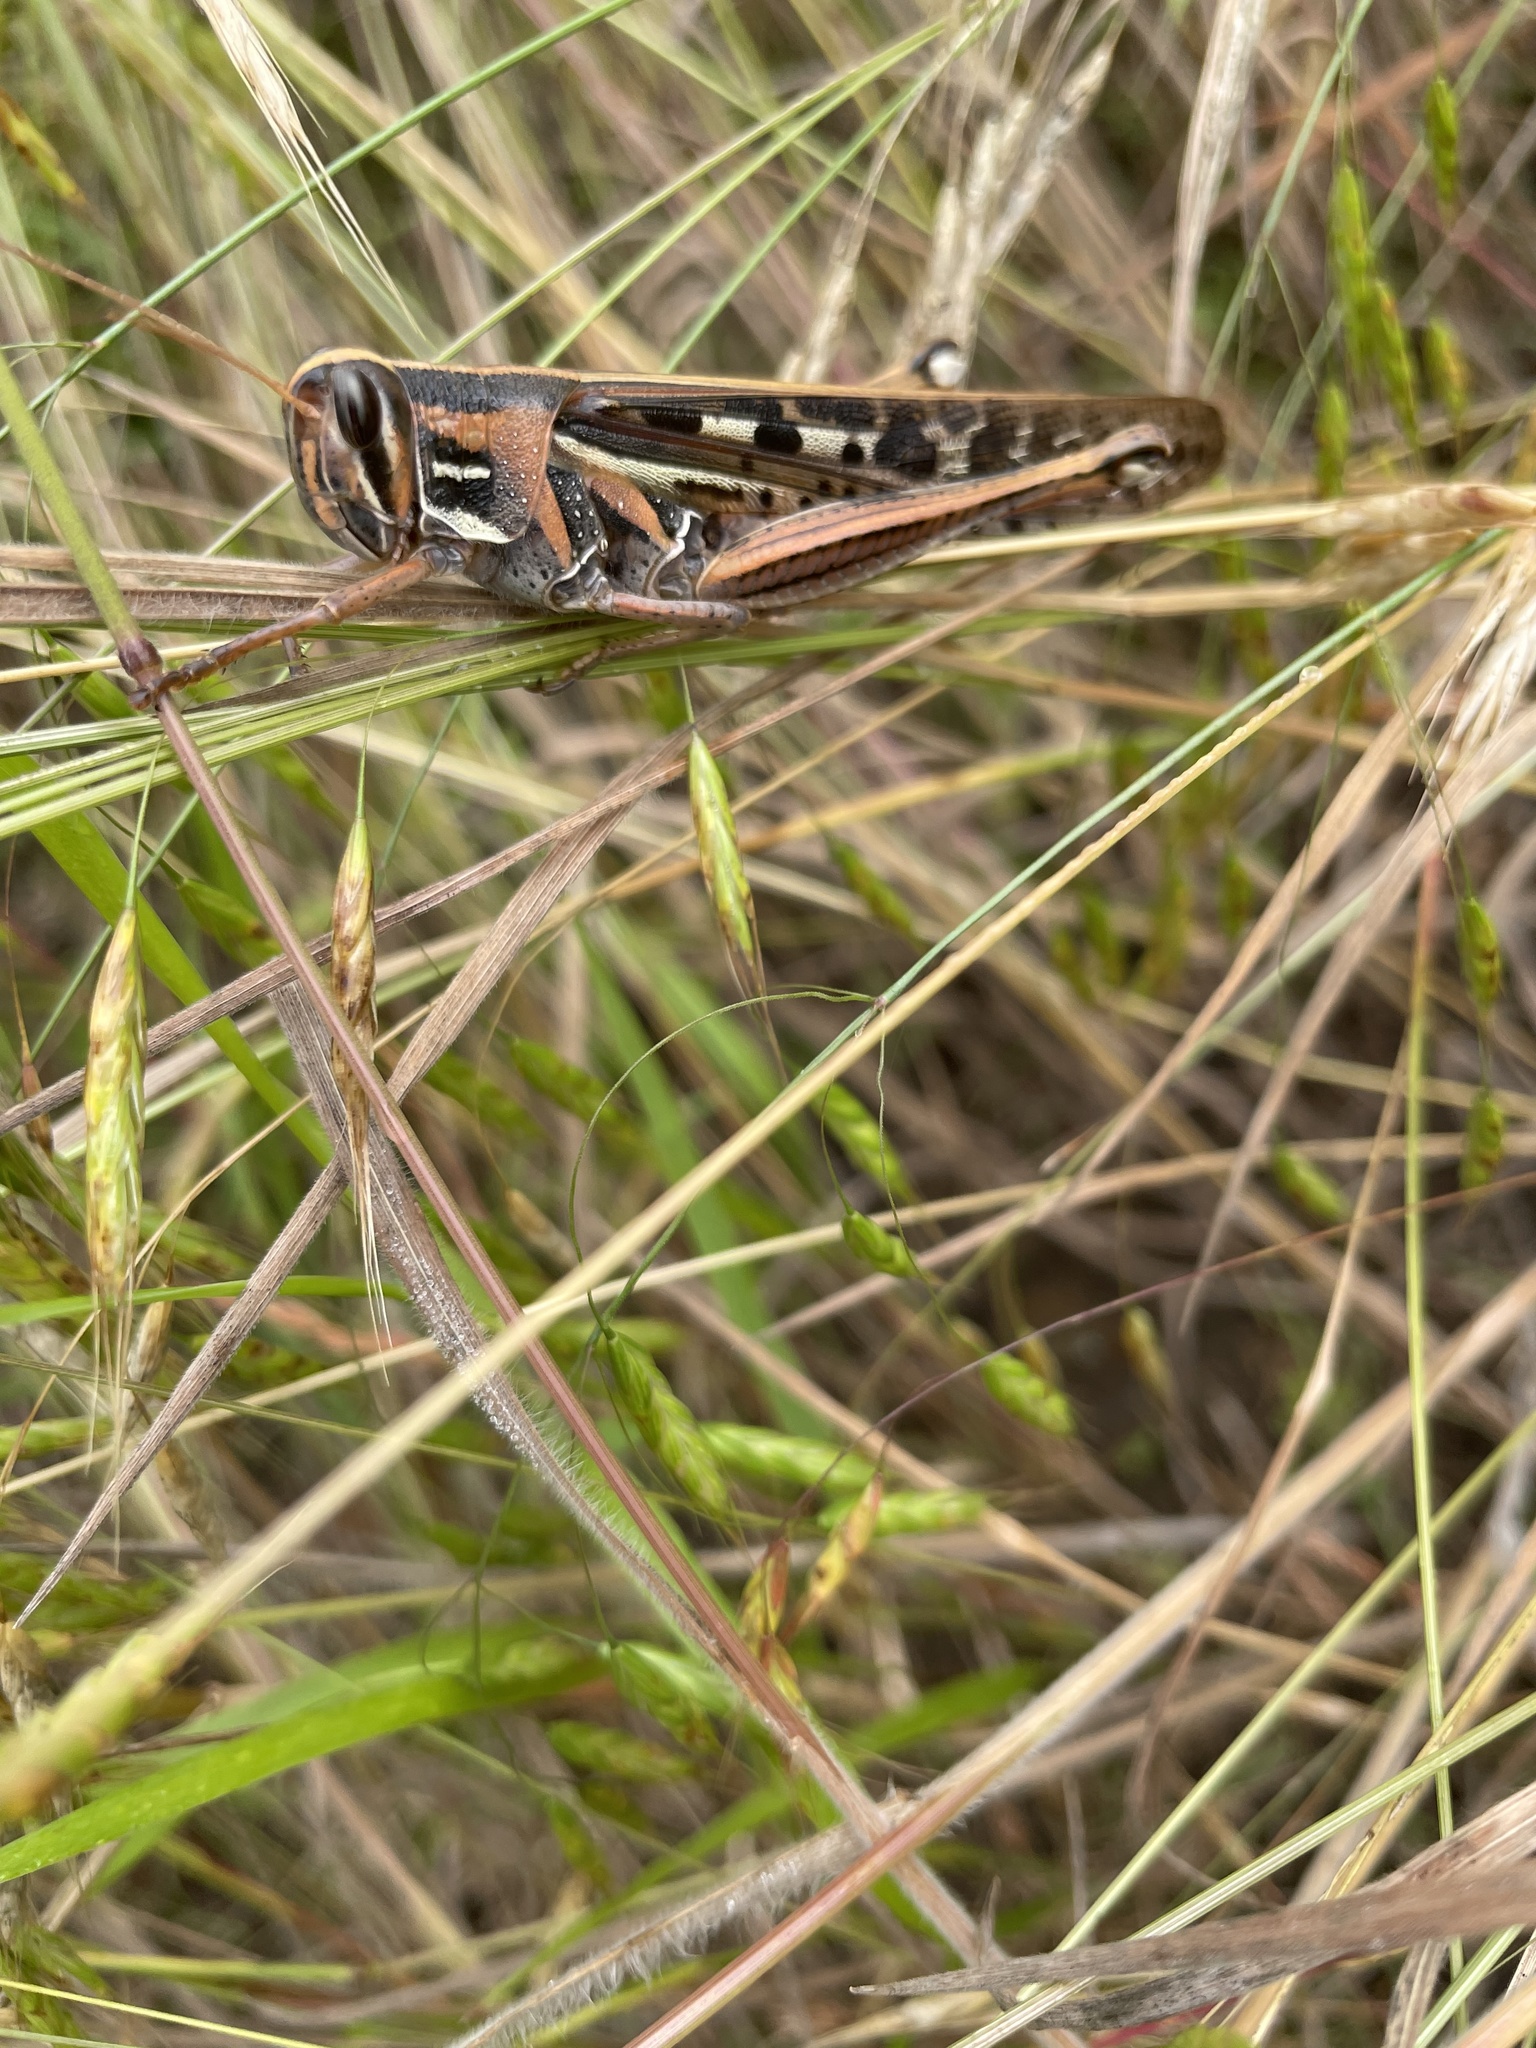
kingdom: Animalia
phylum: Arthropoda
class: Insecta
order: Orthoptera
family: Acrididae
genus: Schistocerca
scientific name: Schistocerca americana
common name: American bird locust
